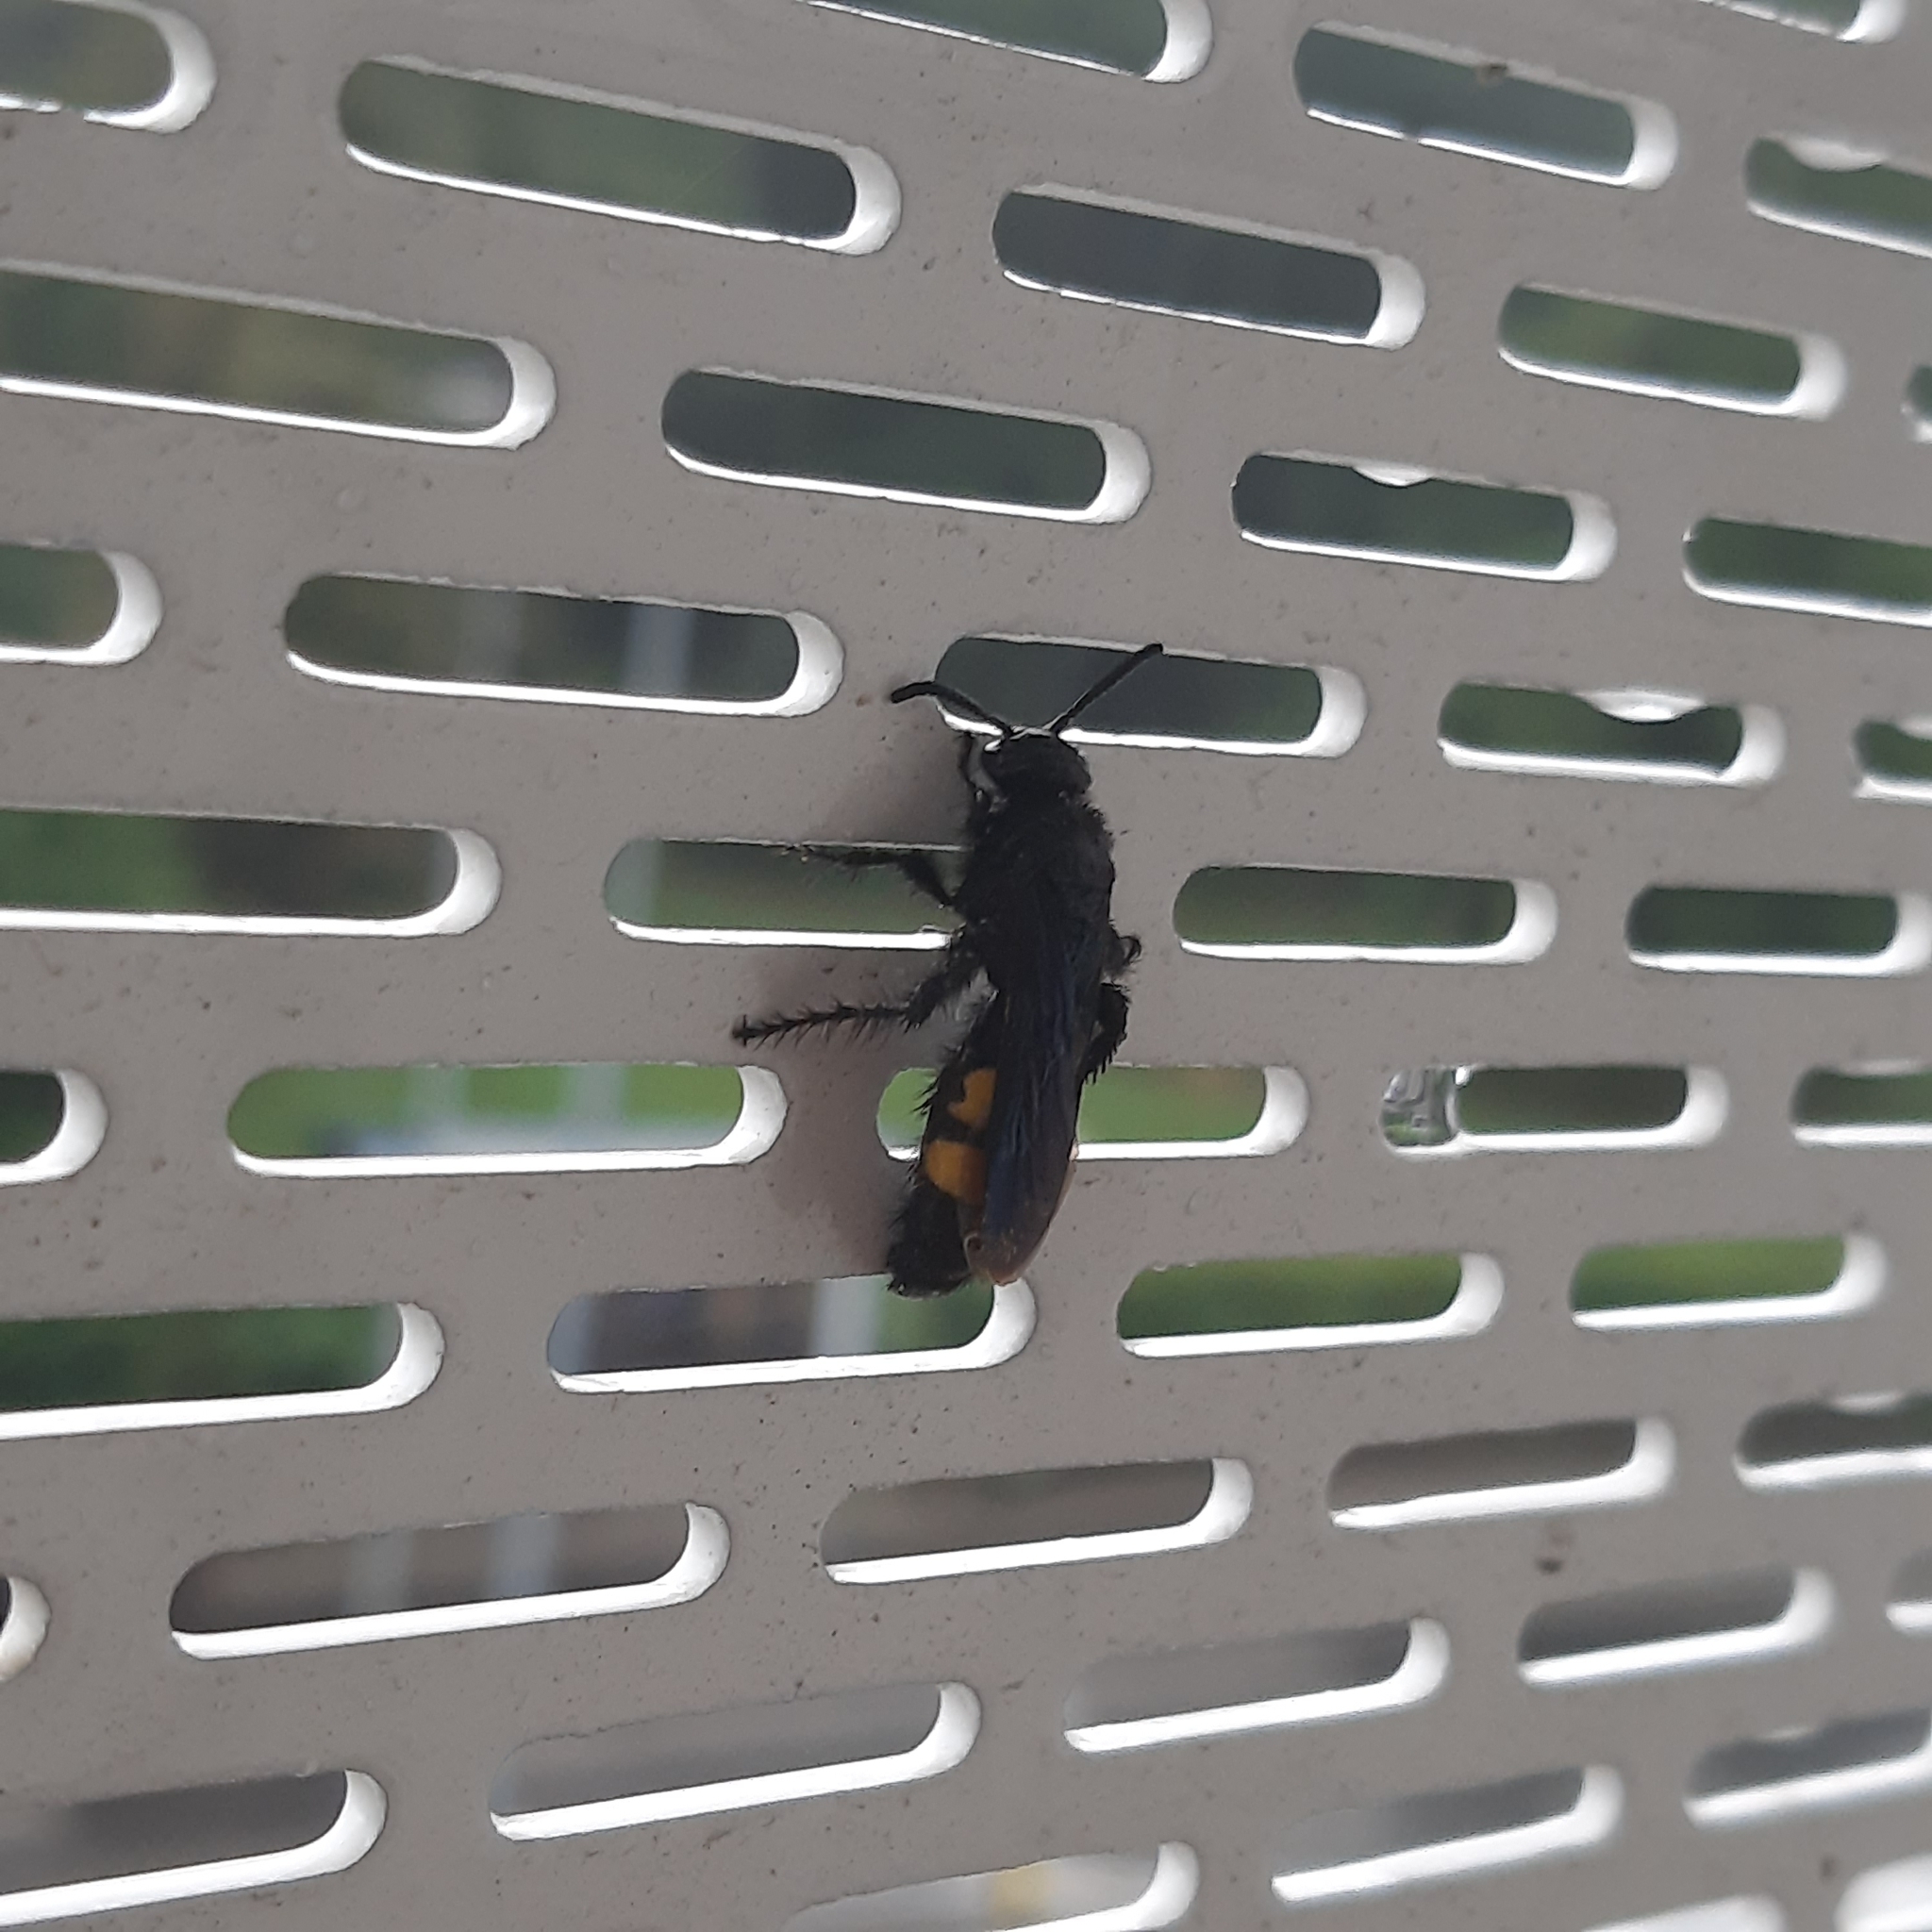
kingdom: Animalia
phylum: Arthropoda
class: Insecta
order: Hymenoptera
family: Scoliidae
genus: Scolia
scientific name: Scolia hirta
